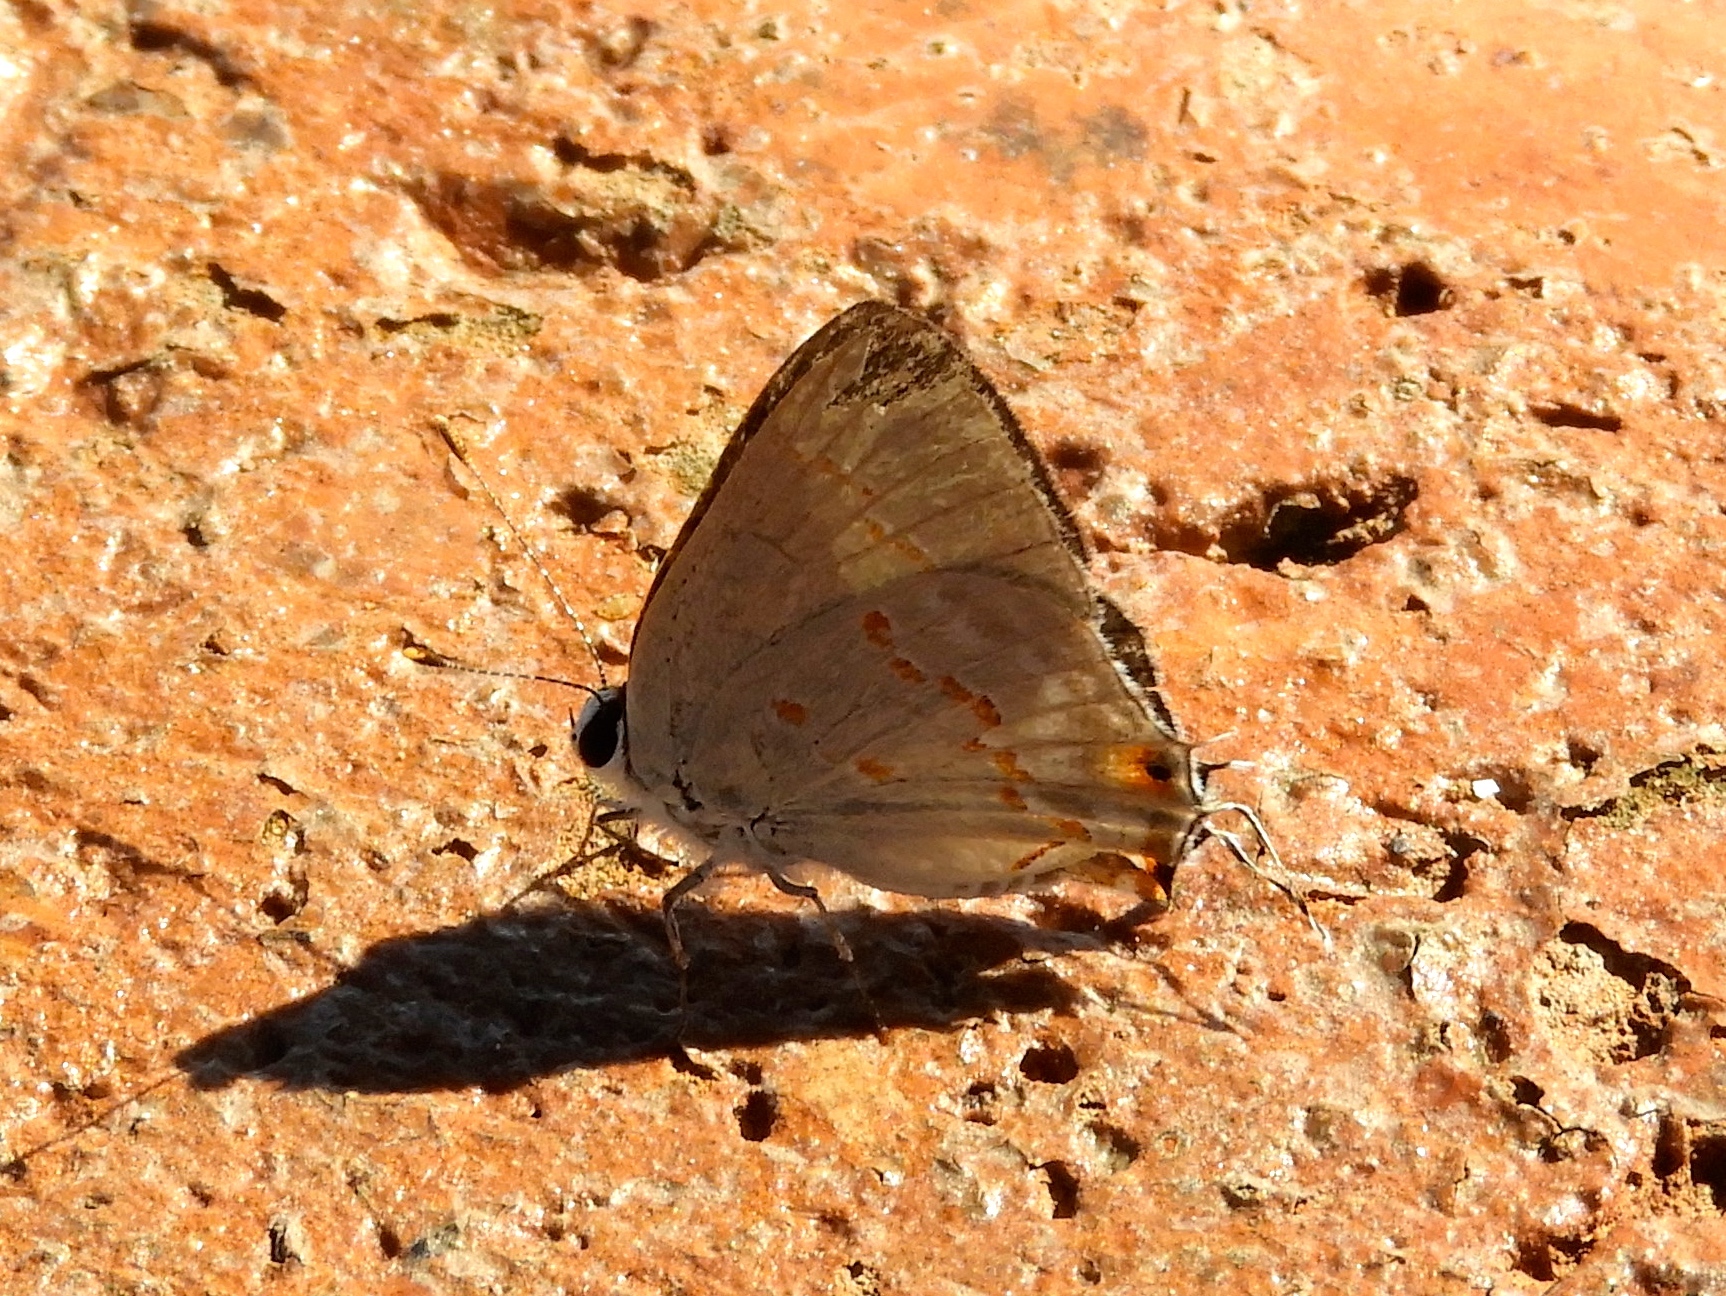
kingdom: Animalia
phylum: Arthropoda
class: Insecta
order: Lepidoptera
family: Lycaenidae
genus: Thecla
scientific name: Thecla ziba
